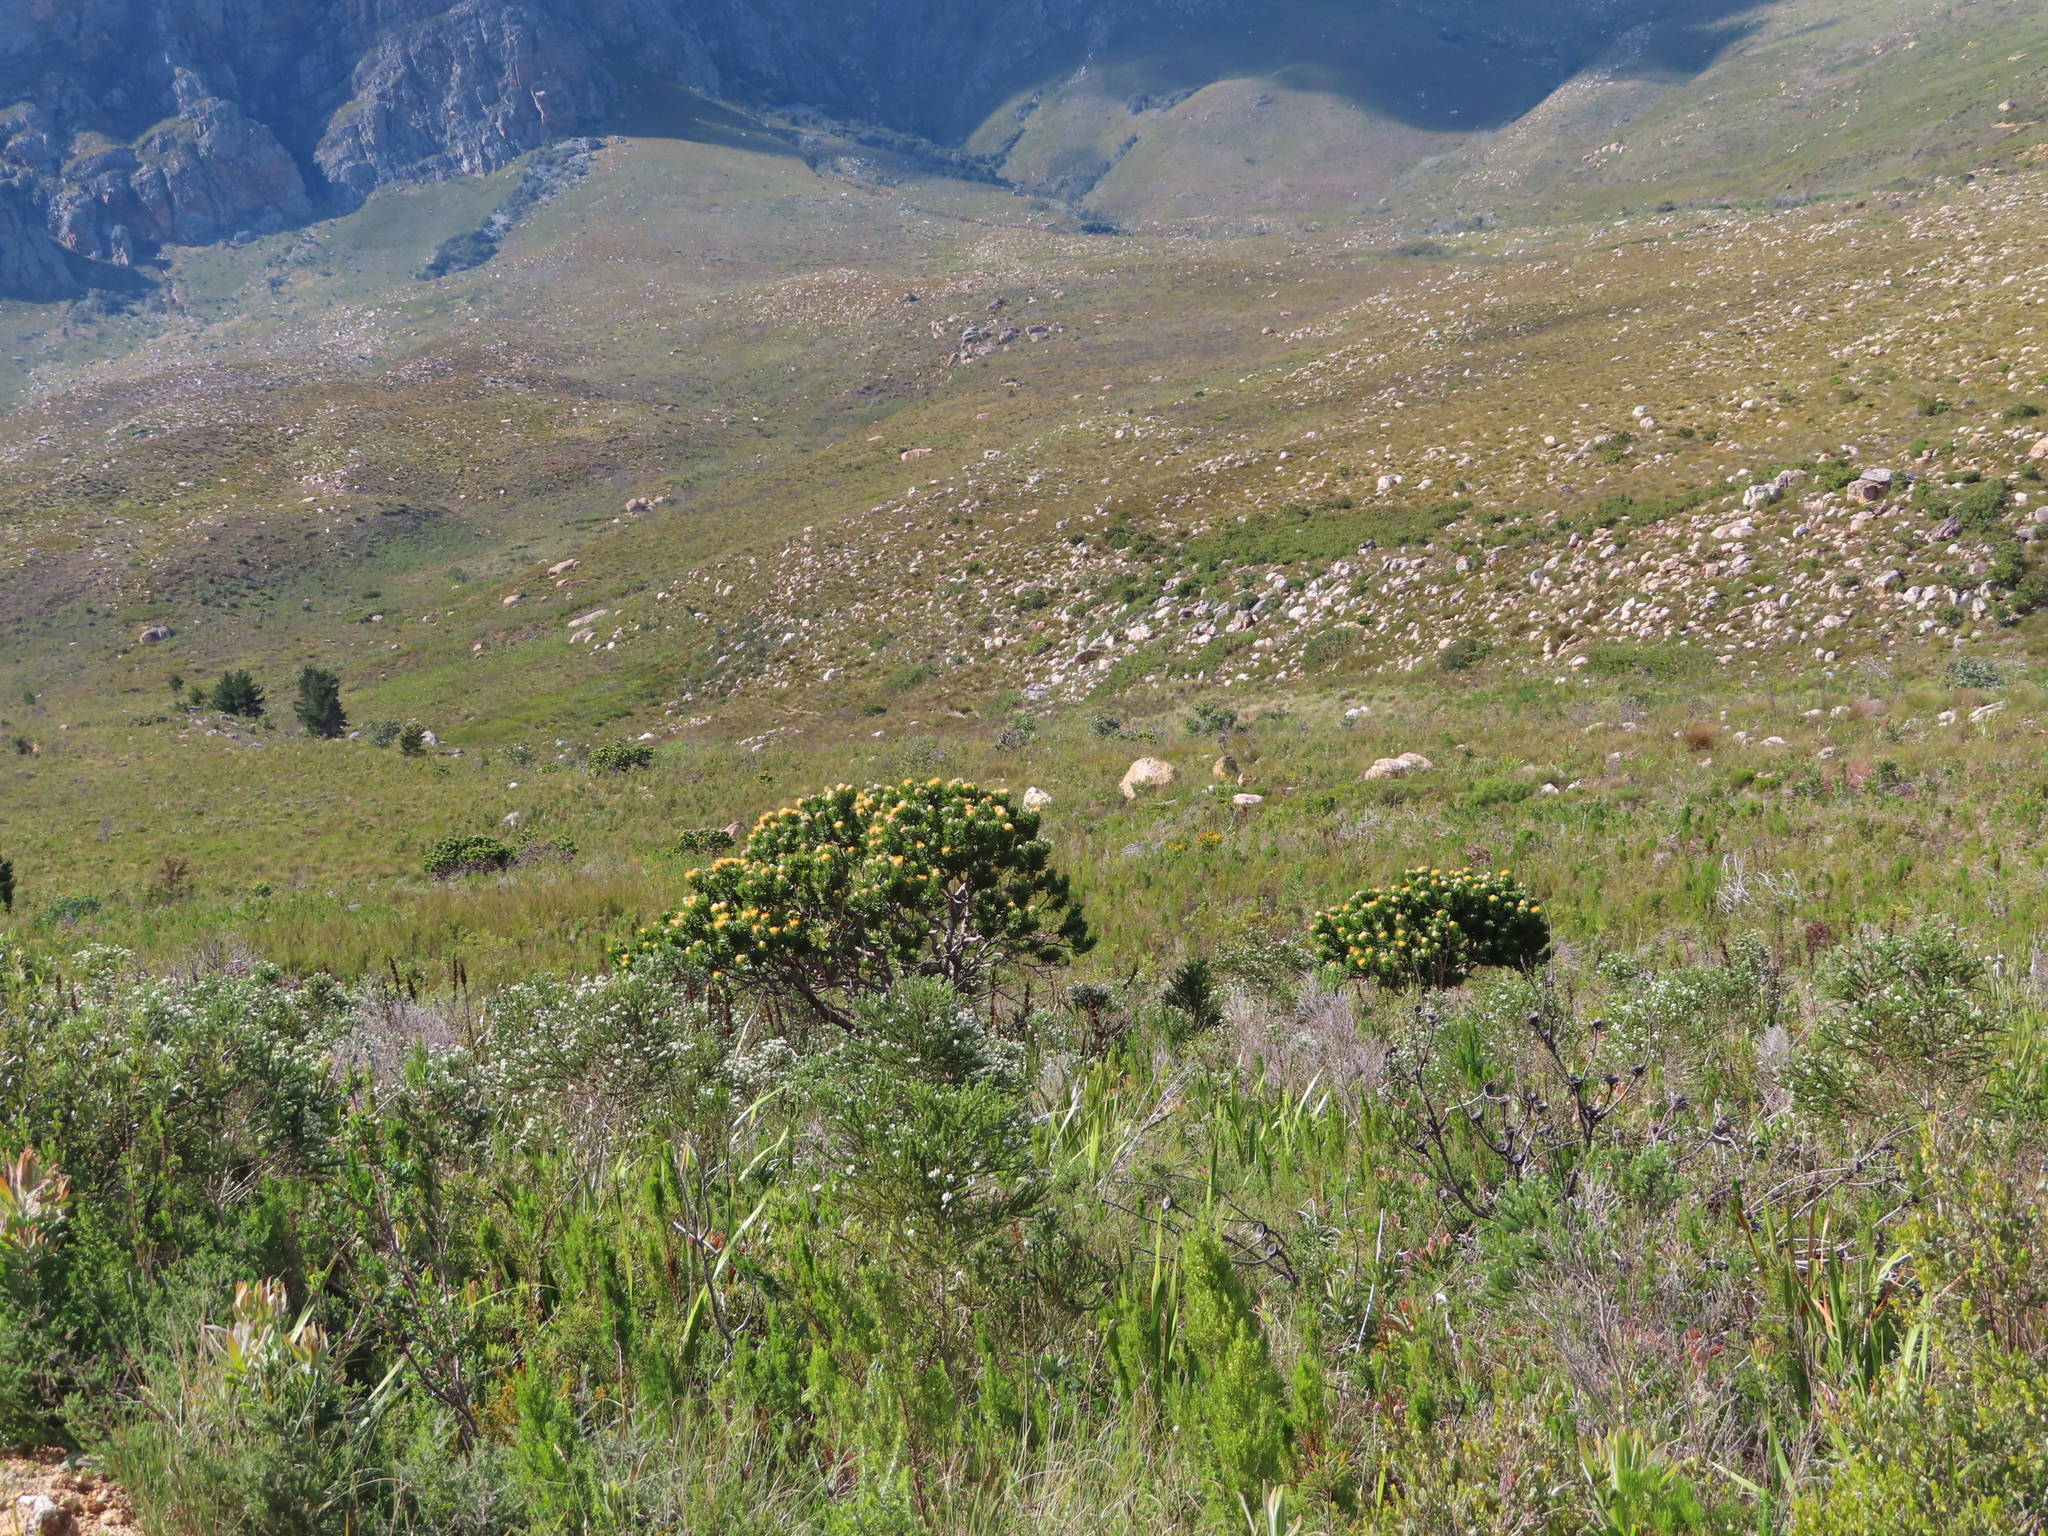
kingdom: Plantae
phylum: Tracheophyta
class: Magnoliopsida
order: Proteales
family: Proteaceae
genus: Leucospermum
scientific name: Leucospermum conocarpodendron
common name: Tree pincushion
